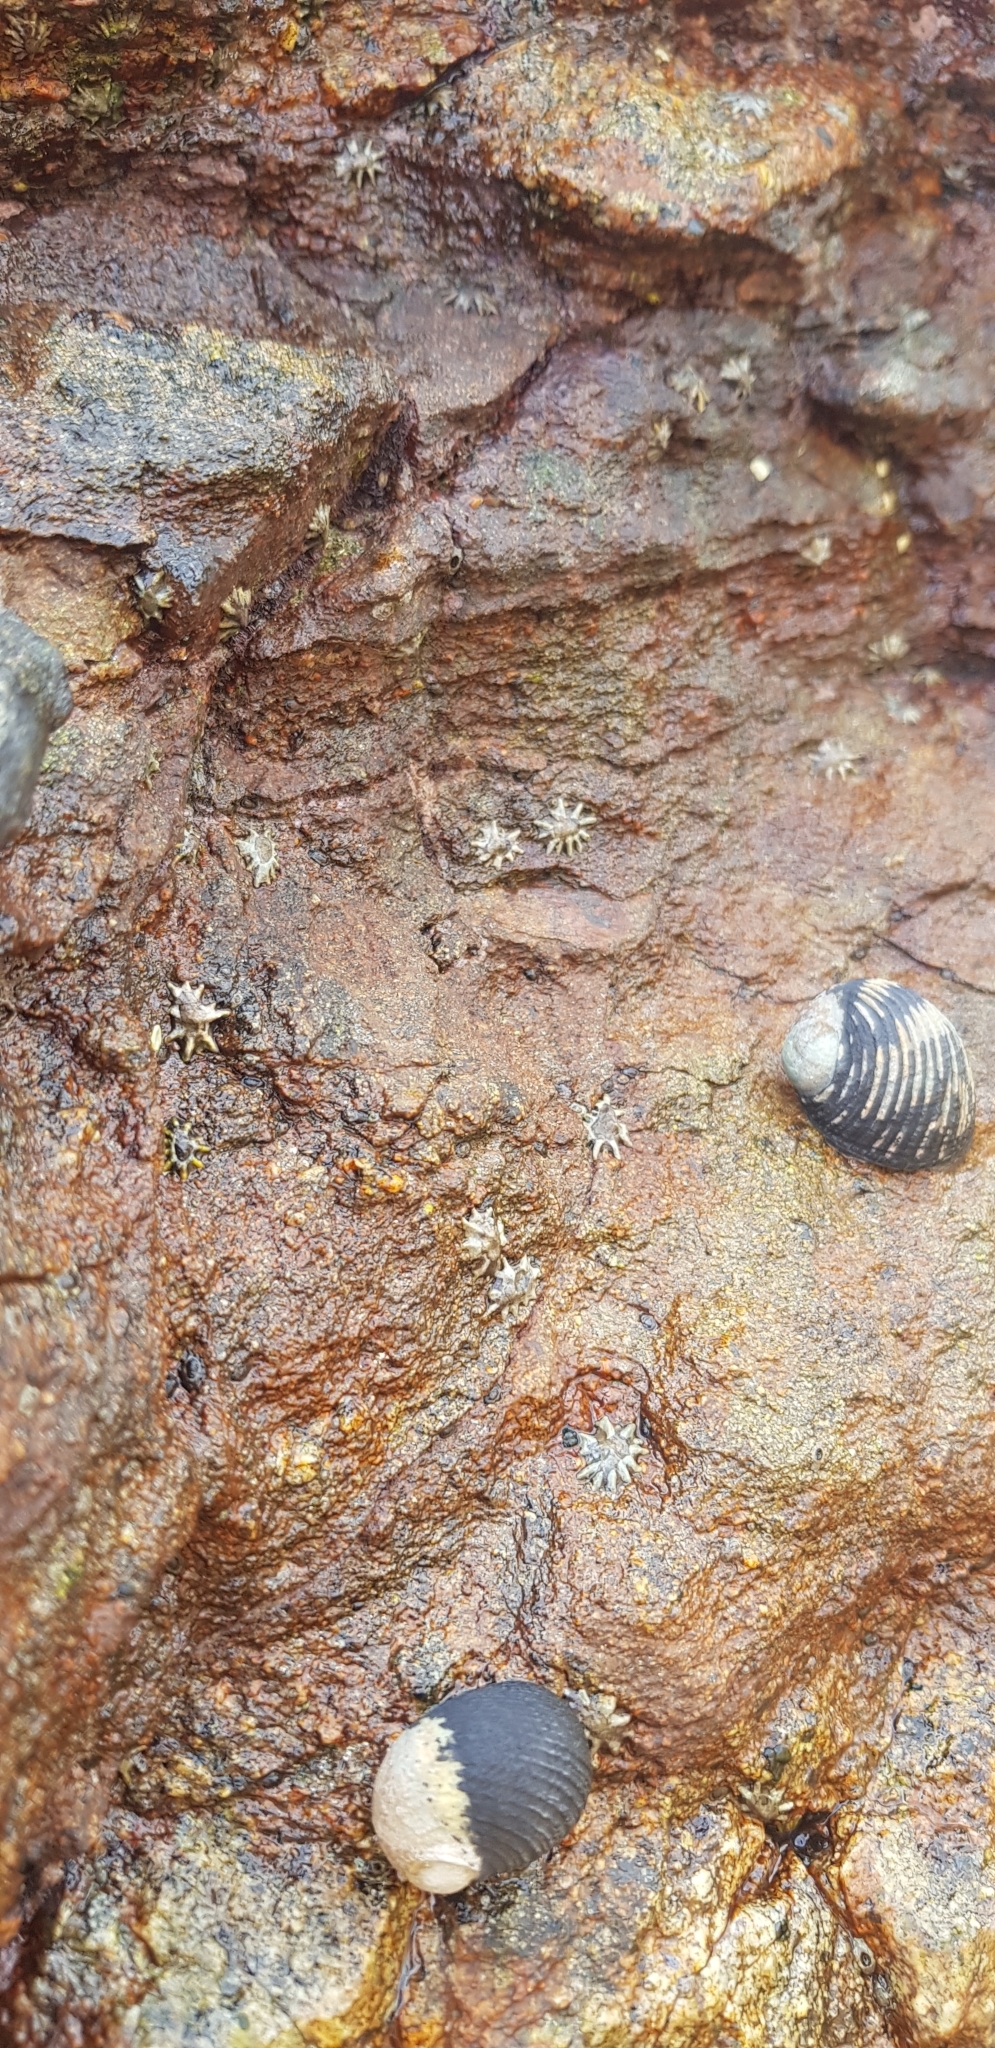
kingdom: Animalia
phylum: Mollusca
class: Gastropoda
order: Cycloneritida
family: Neritidae
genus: Nerita
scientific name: Nerita scabricosta
